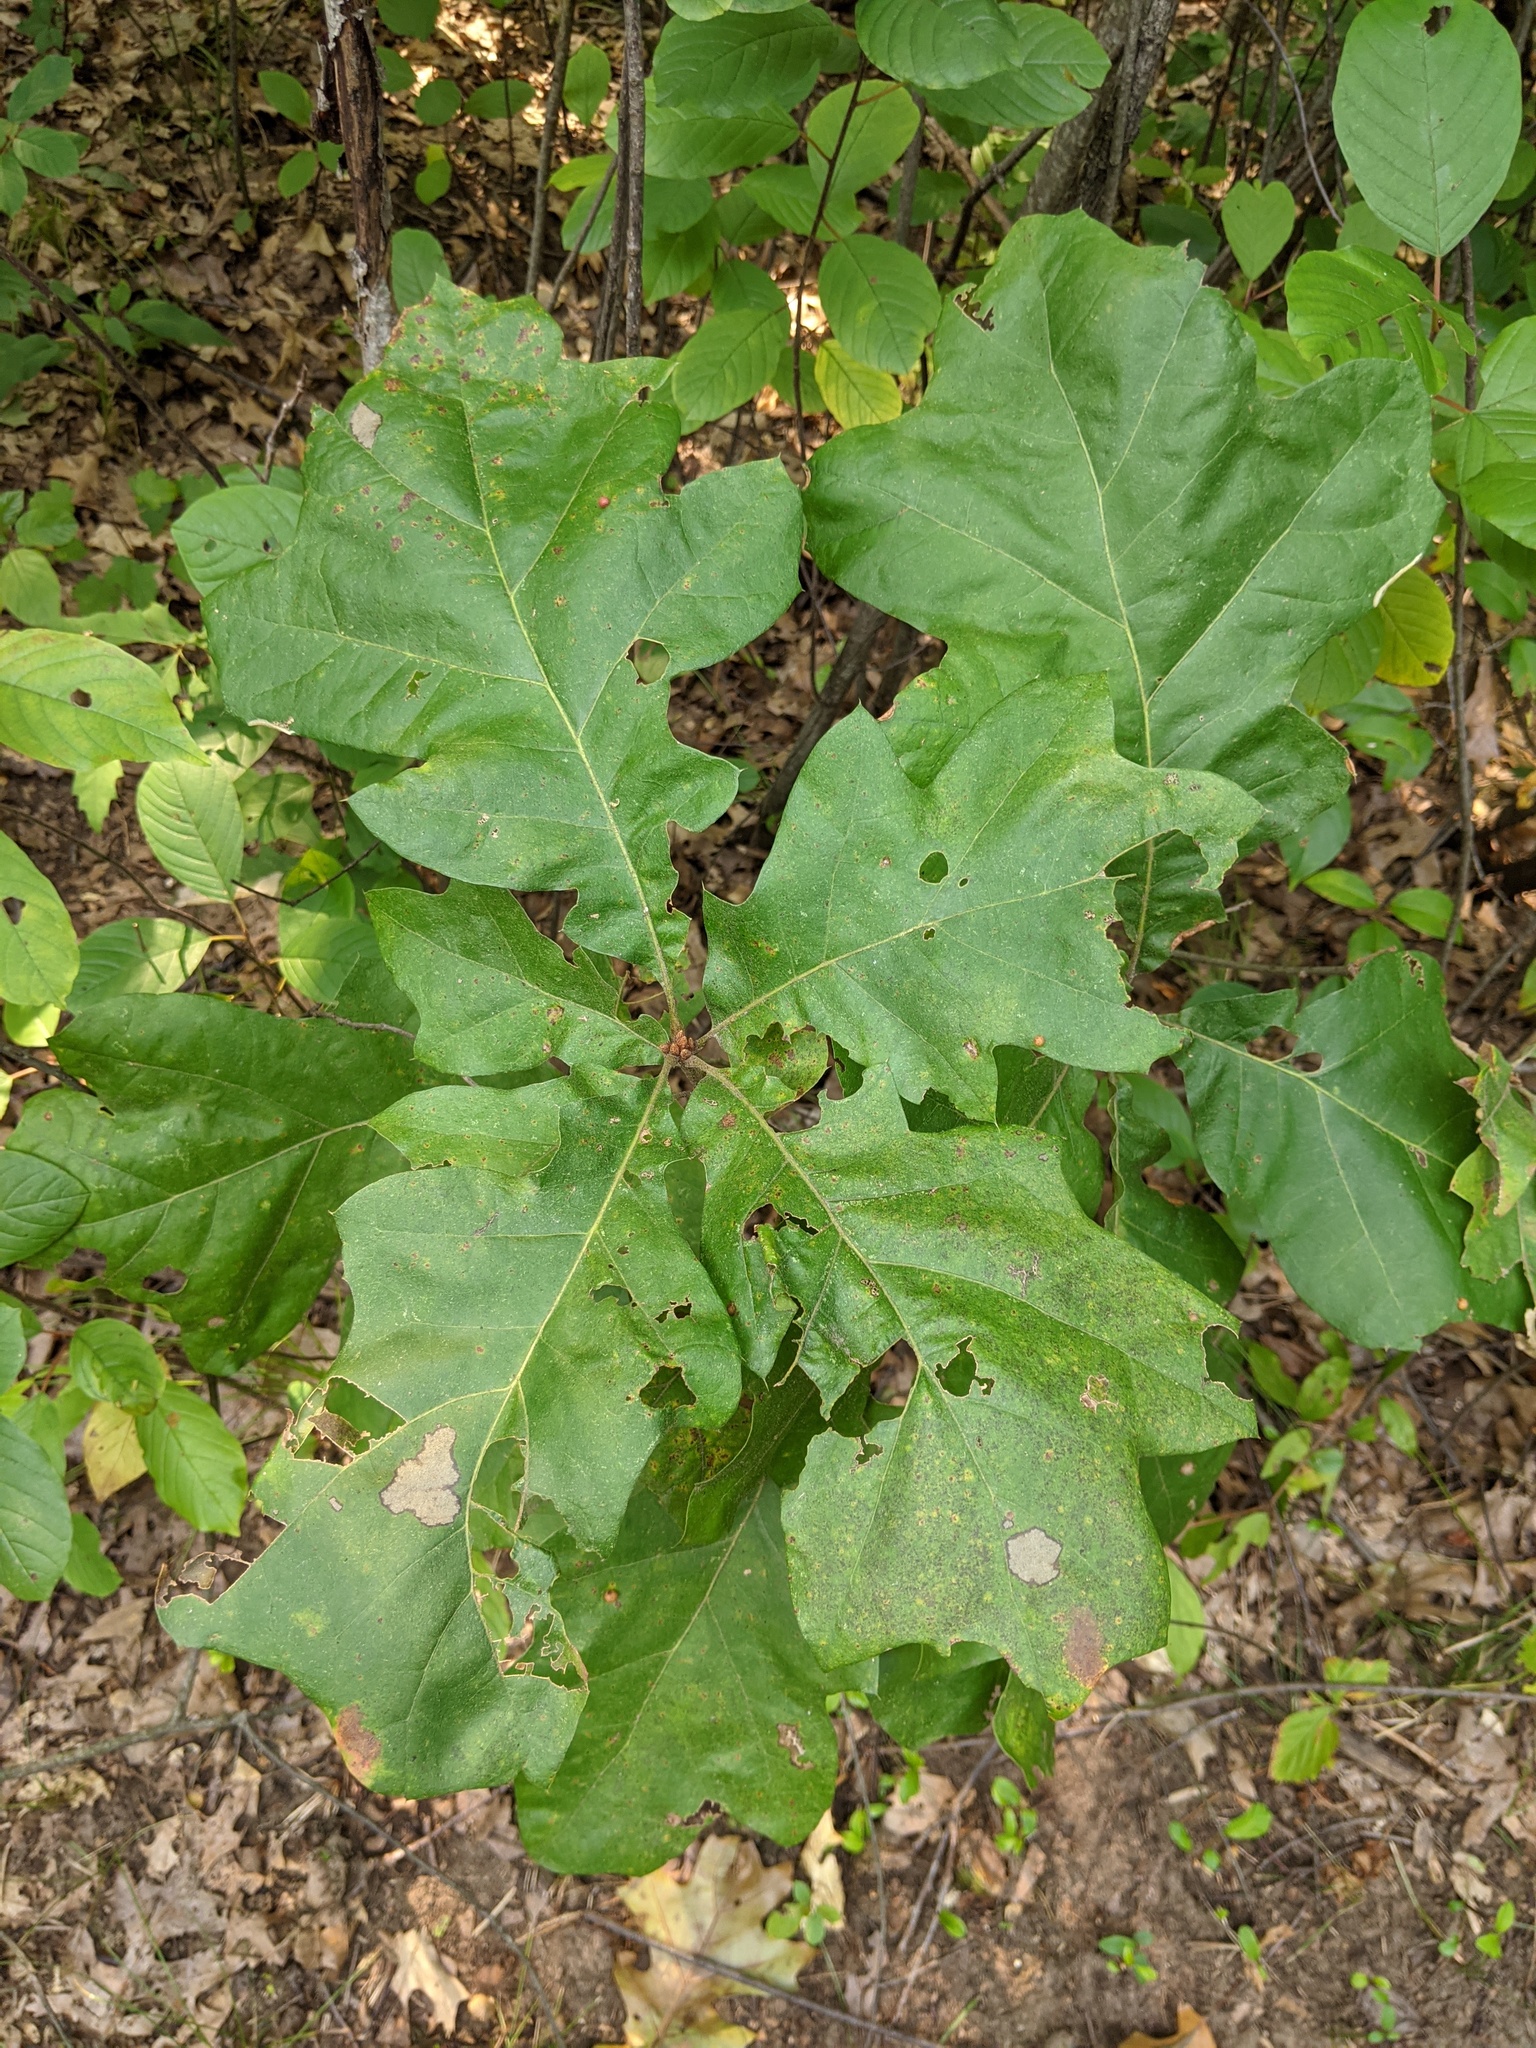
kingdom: Plantae
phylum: Tracheophyta
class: Magnoliopsida
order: Fagales
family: Fagaceae
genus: Quercus
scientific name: Quercus velutina
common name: Black oak
